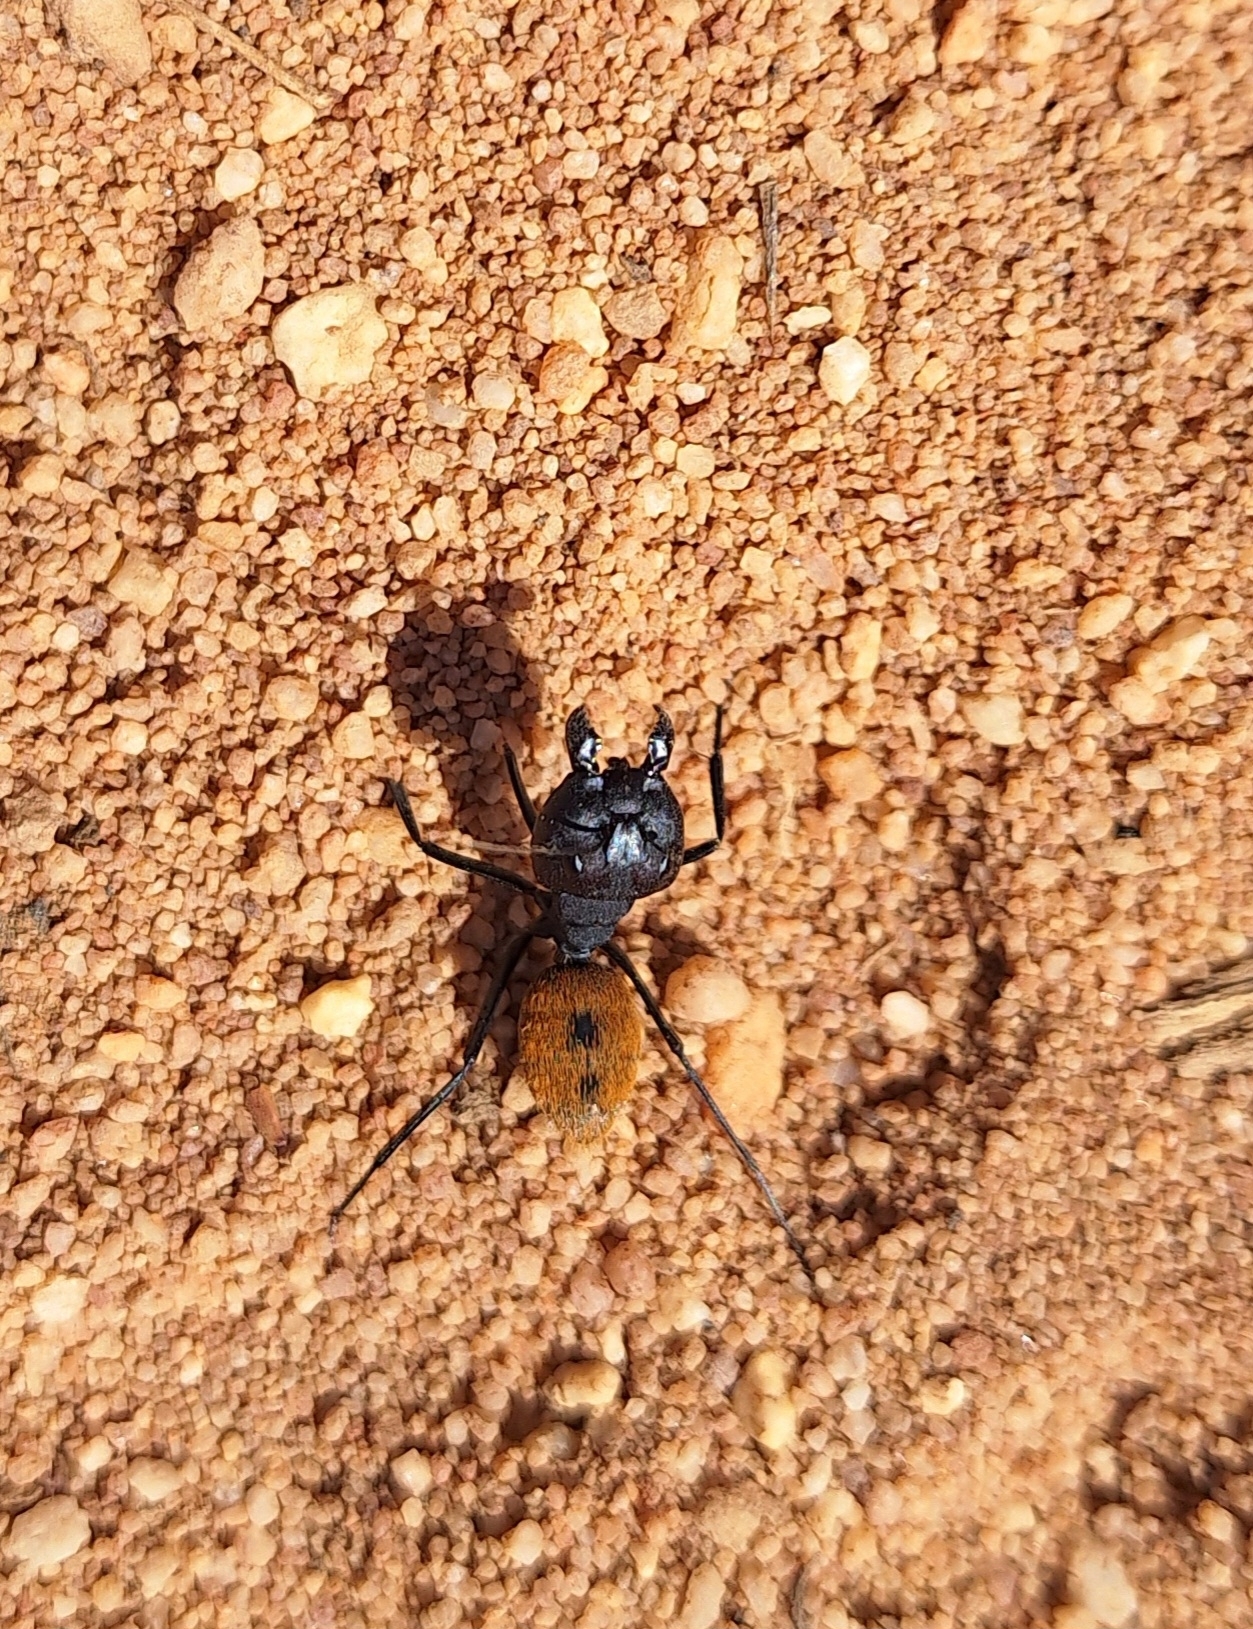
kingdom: Animalia
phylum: Arthropoda
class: Insecta
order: Hymenoptera
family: Formicidae
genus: Camponotus
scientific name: Camponotus fulvopilosus
